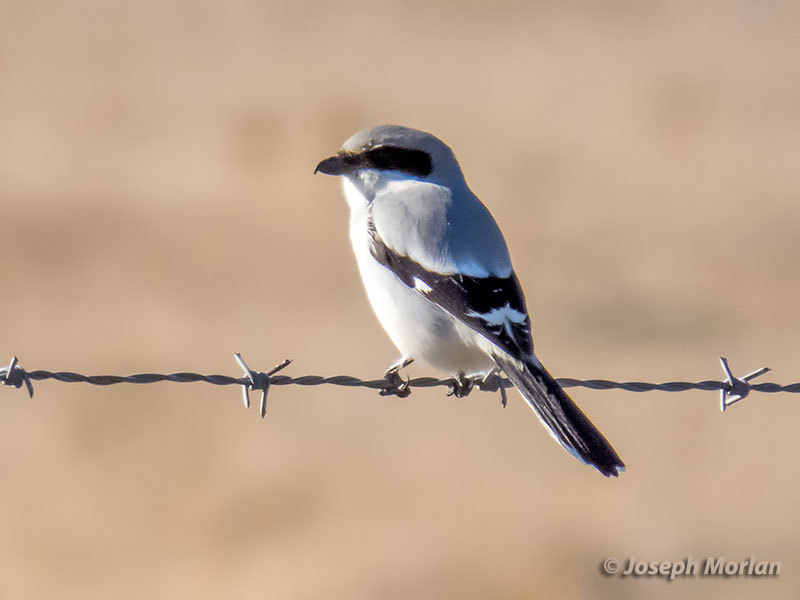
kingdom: Animalia
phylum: Chordata
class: Aves
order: Passeriformes
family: Laniidae
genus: Lanius
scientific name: Lanius ludovicianus
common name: Loggerhead shrike
